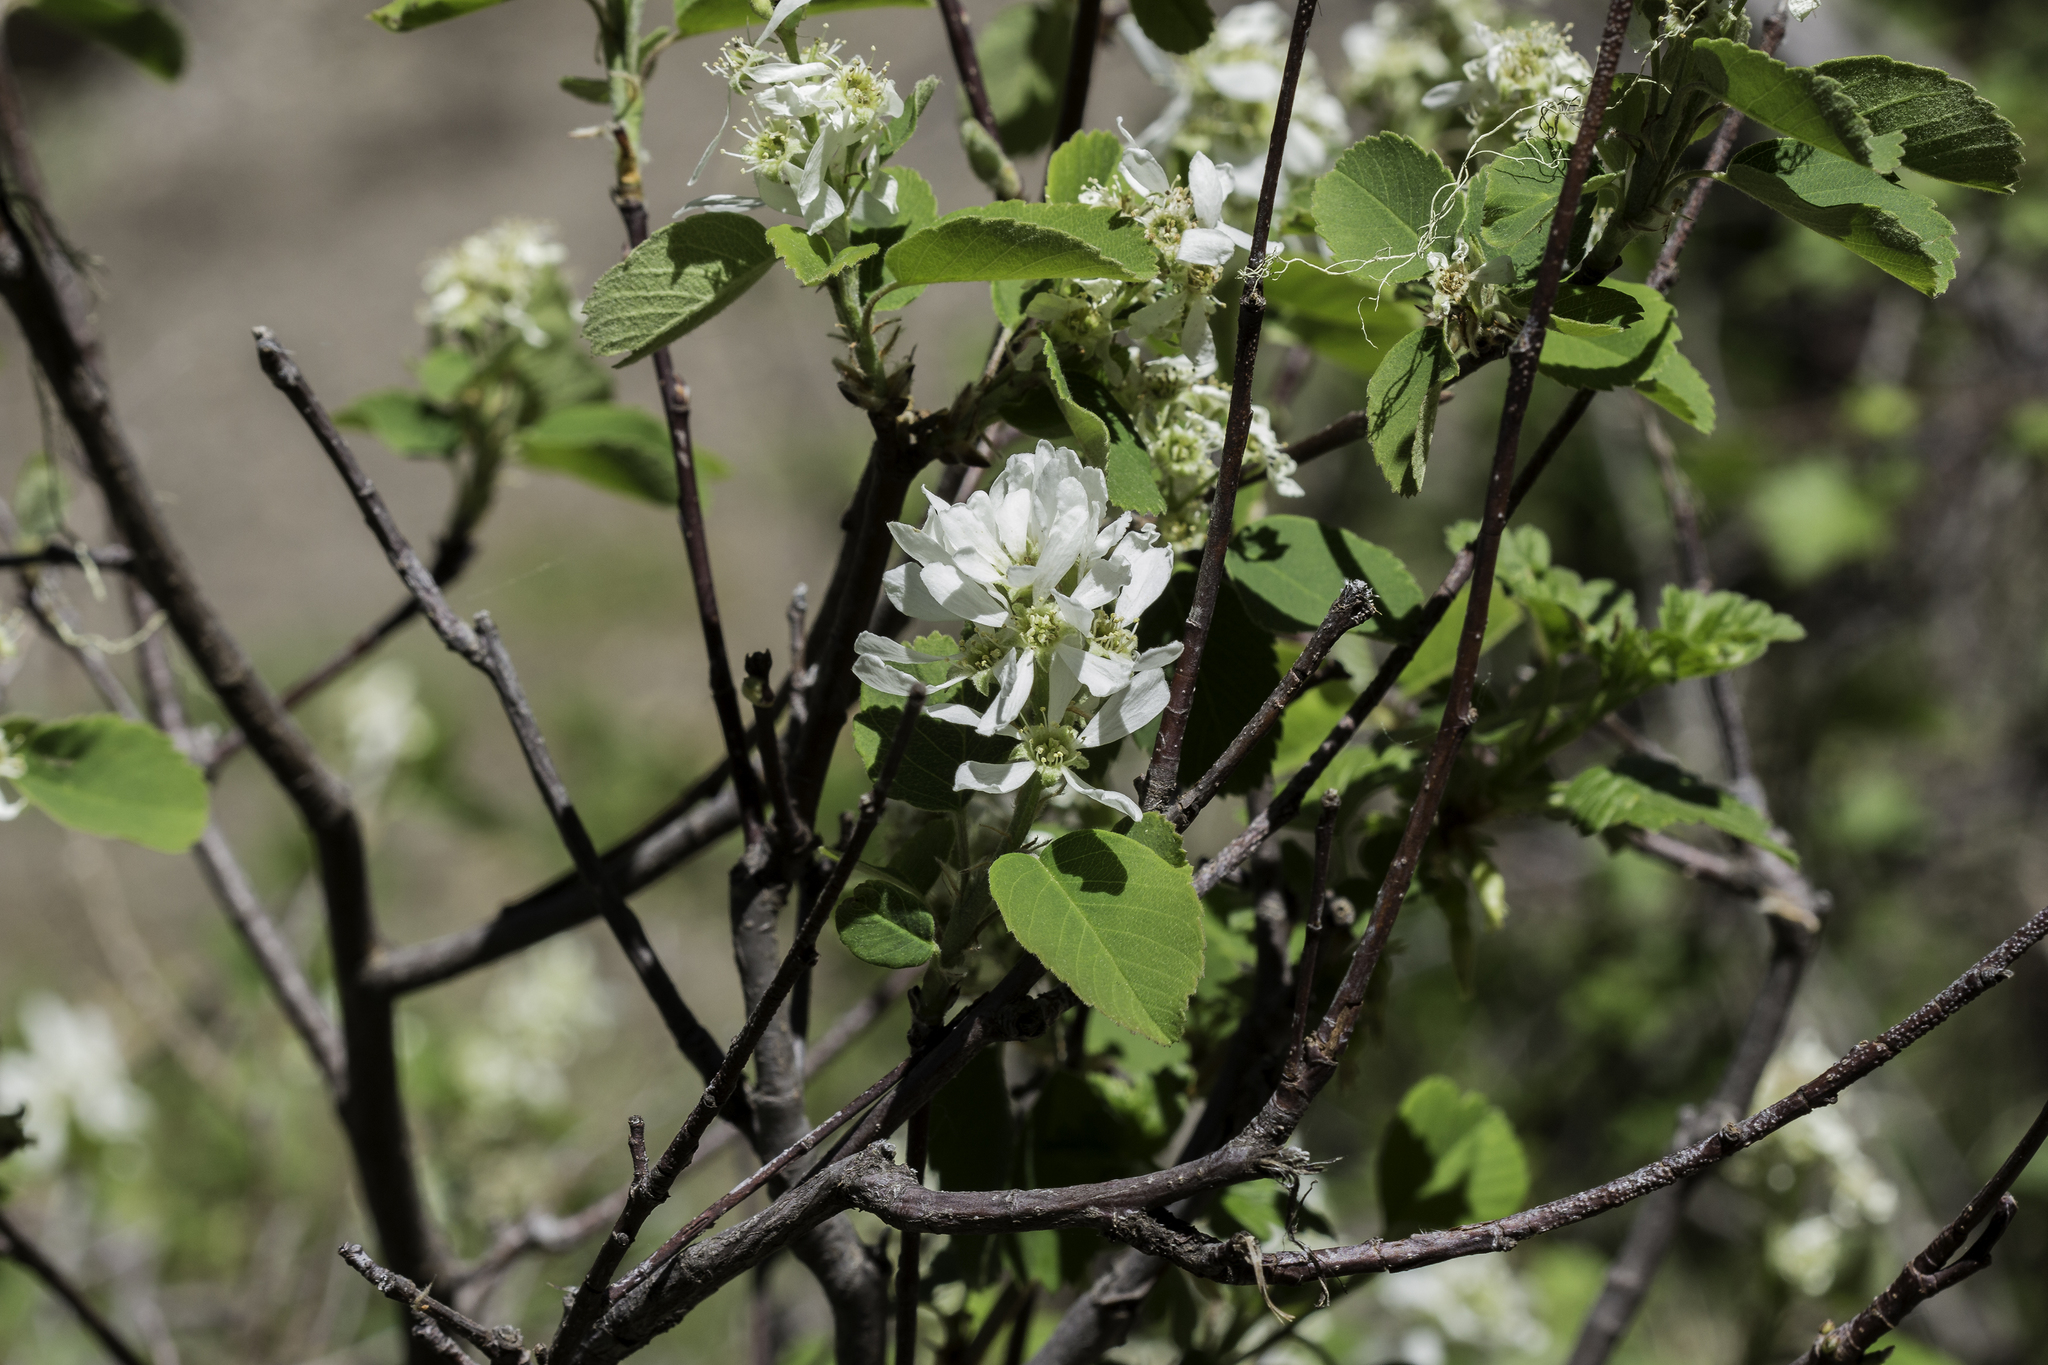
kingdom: Plantae
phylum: Tracheophyta
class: Magnoliopsida
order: Rosales
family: Rosaceae
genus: Amelanchier
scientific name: Amelanchier alnifolia
